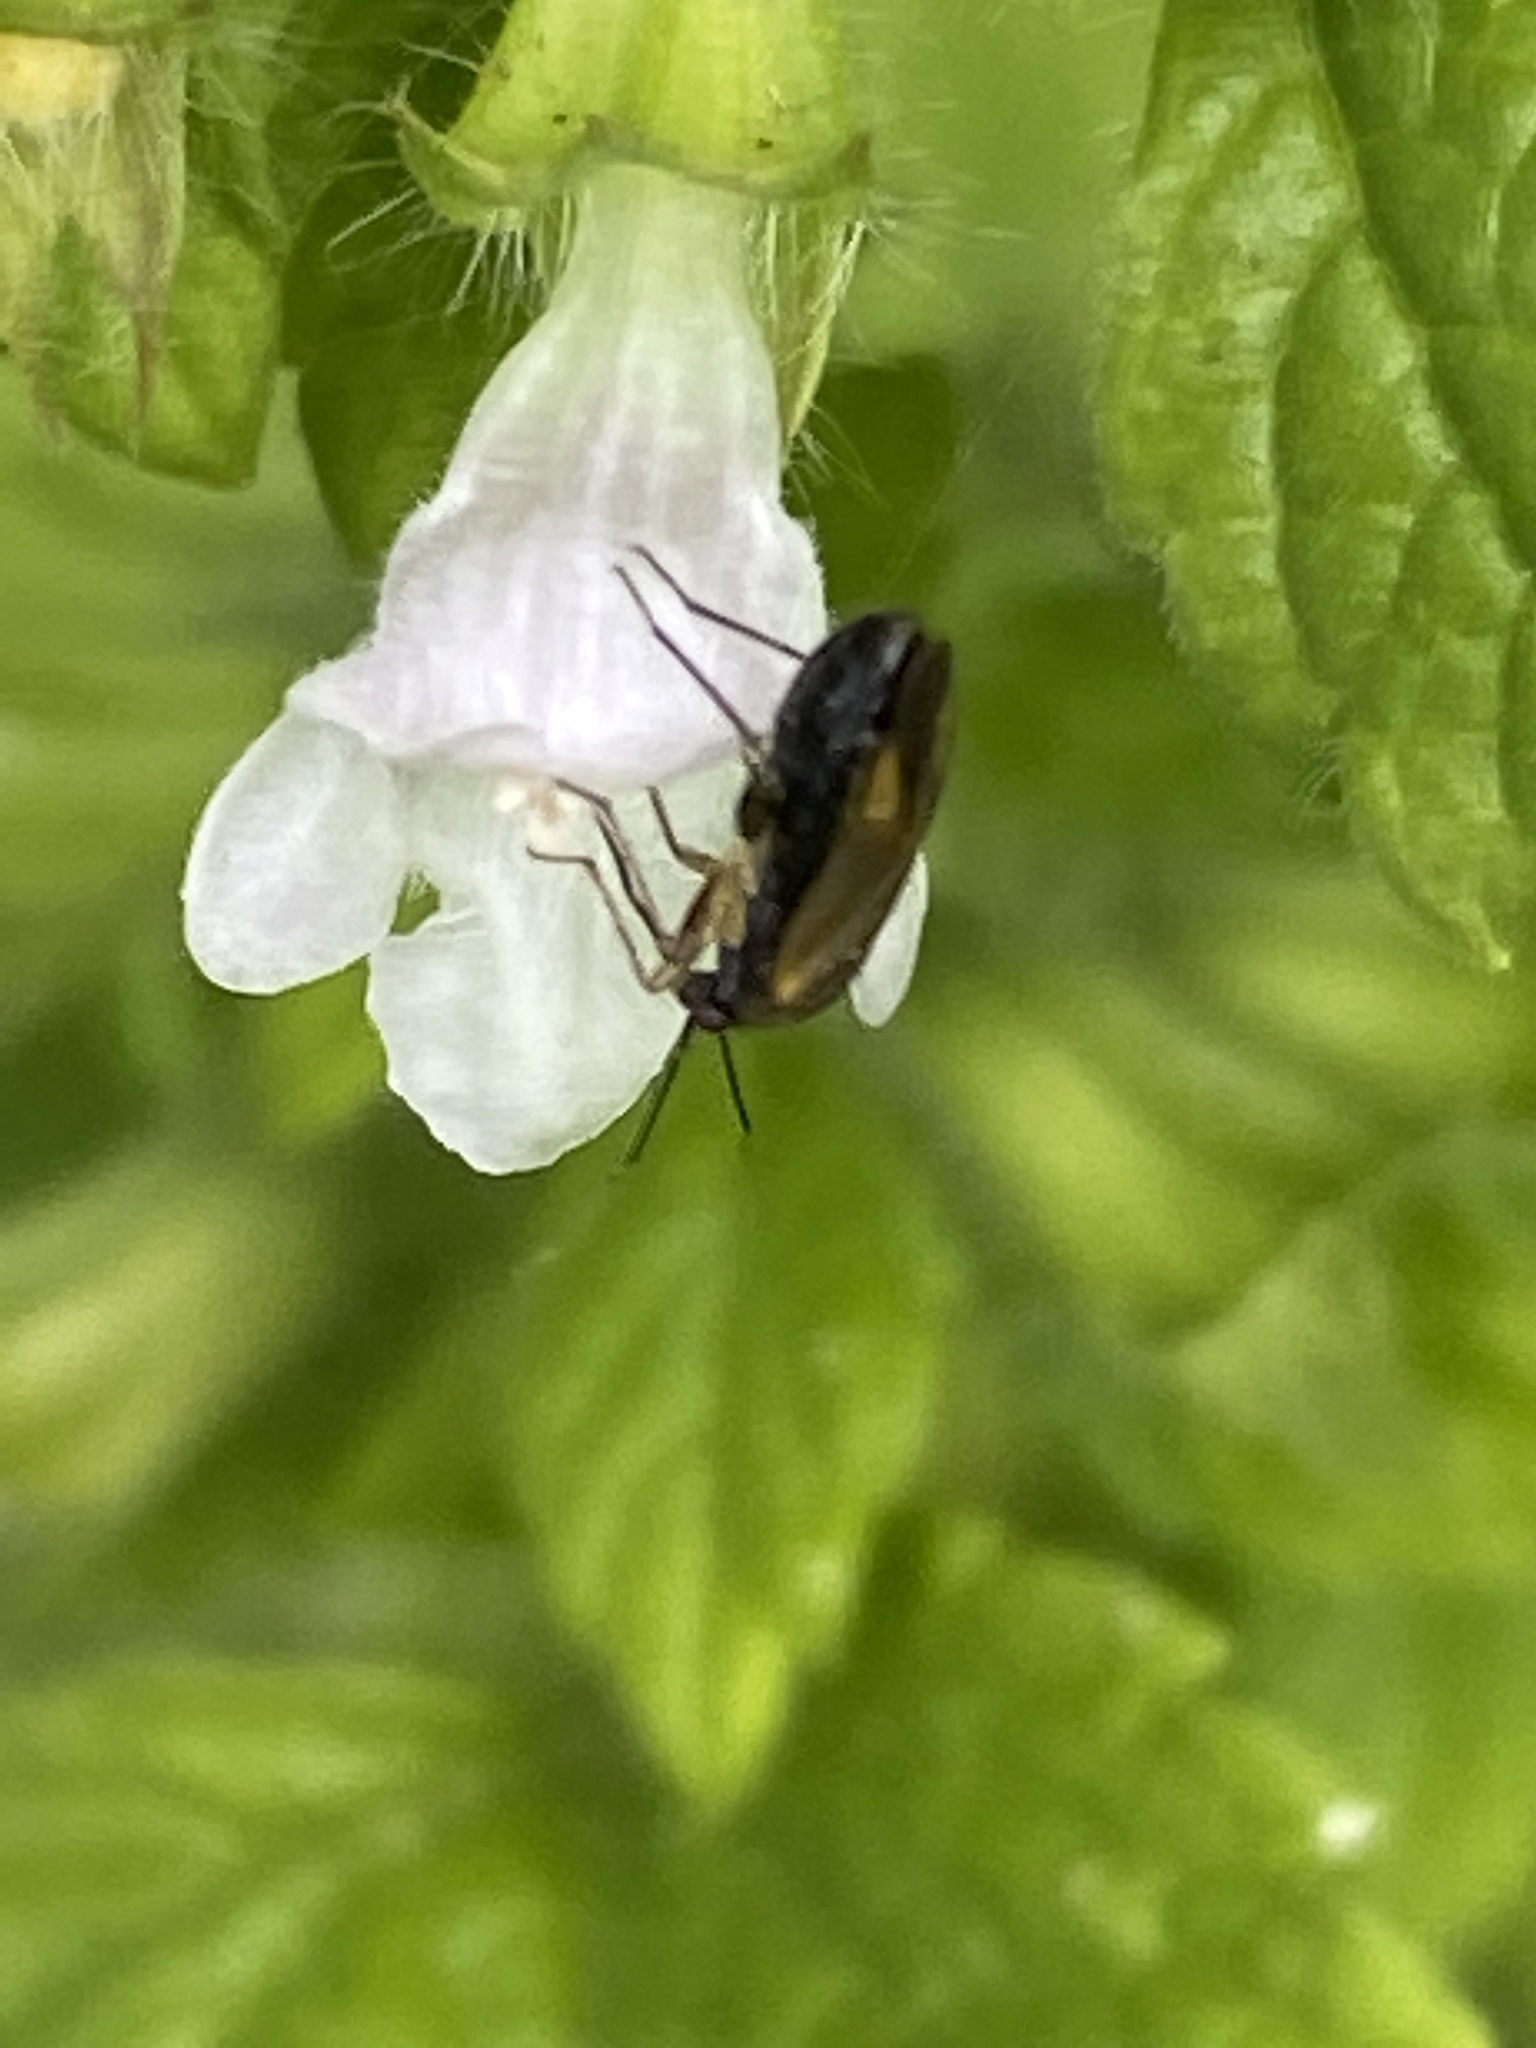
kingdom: Animalia
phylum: Arthropoda
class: Insecta
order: Hemiptera
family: Miridae
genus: Plagiognathus
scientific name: Plagiognathus arbustorum
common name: Plant bug
